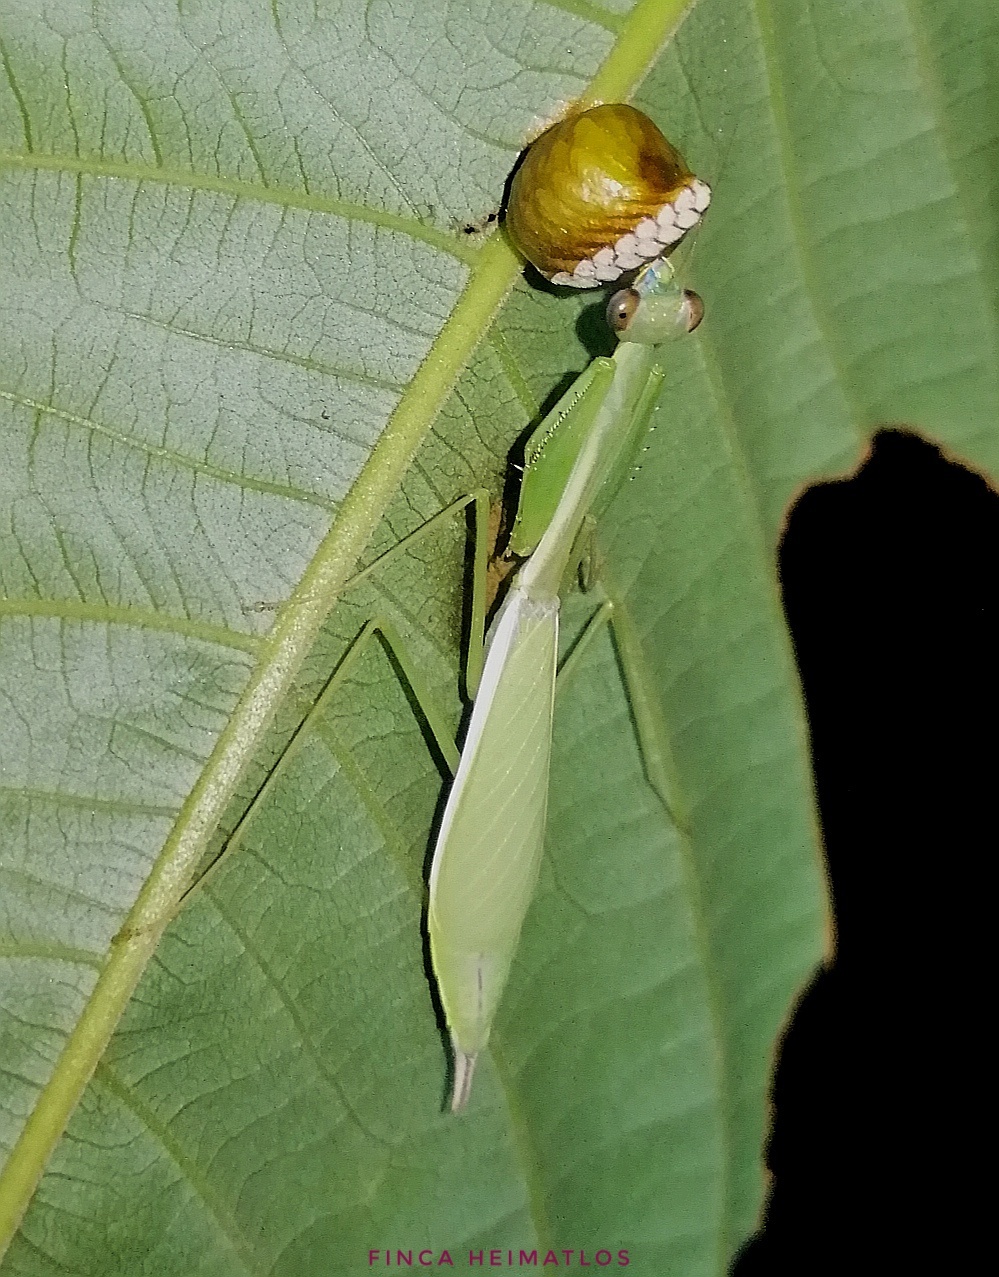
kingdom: Animalia
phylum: Arthropoda
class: Insecta
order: Mantodea
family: Photinaidae
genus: Chromatophotina
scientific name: Chromatophotina cofan
